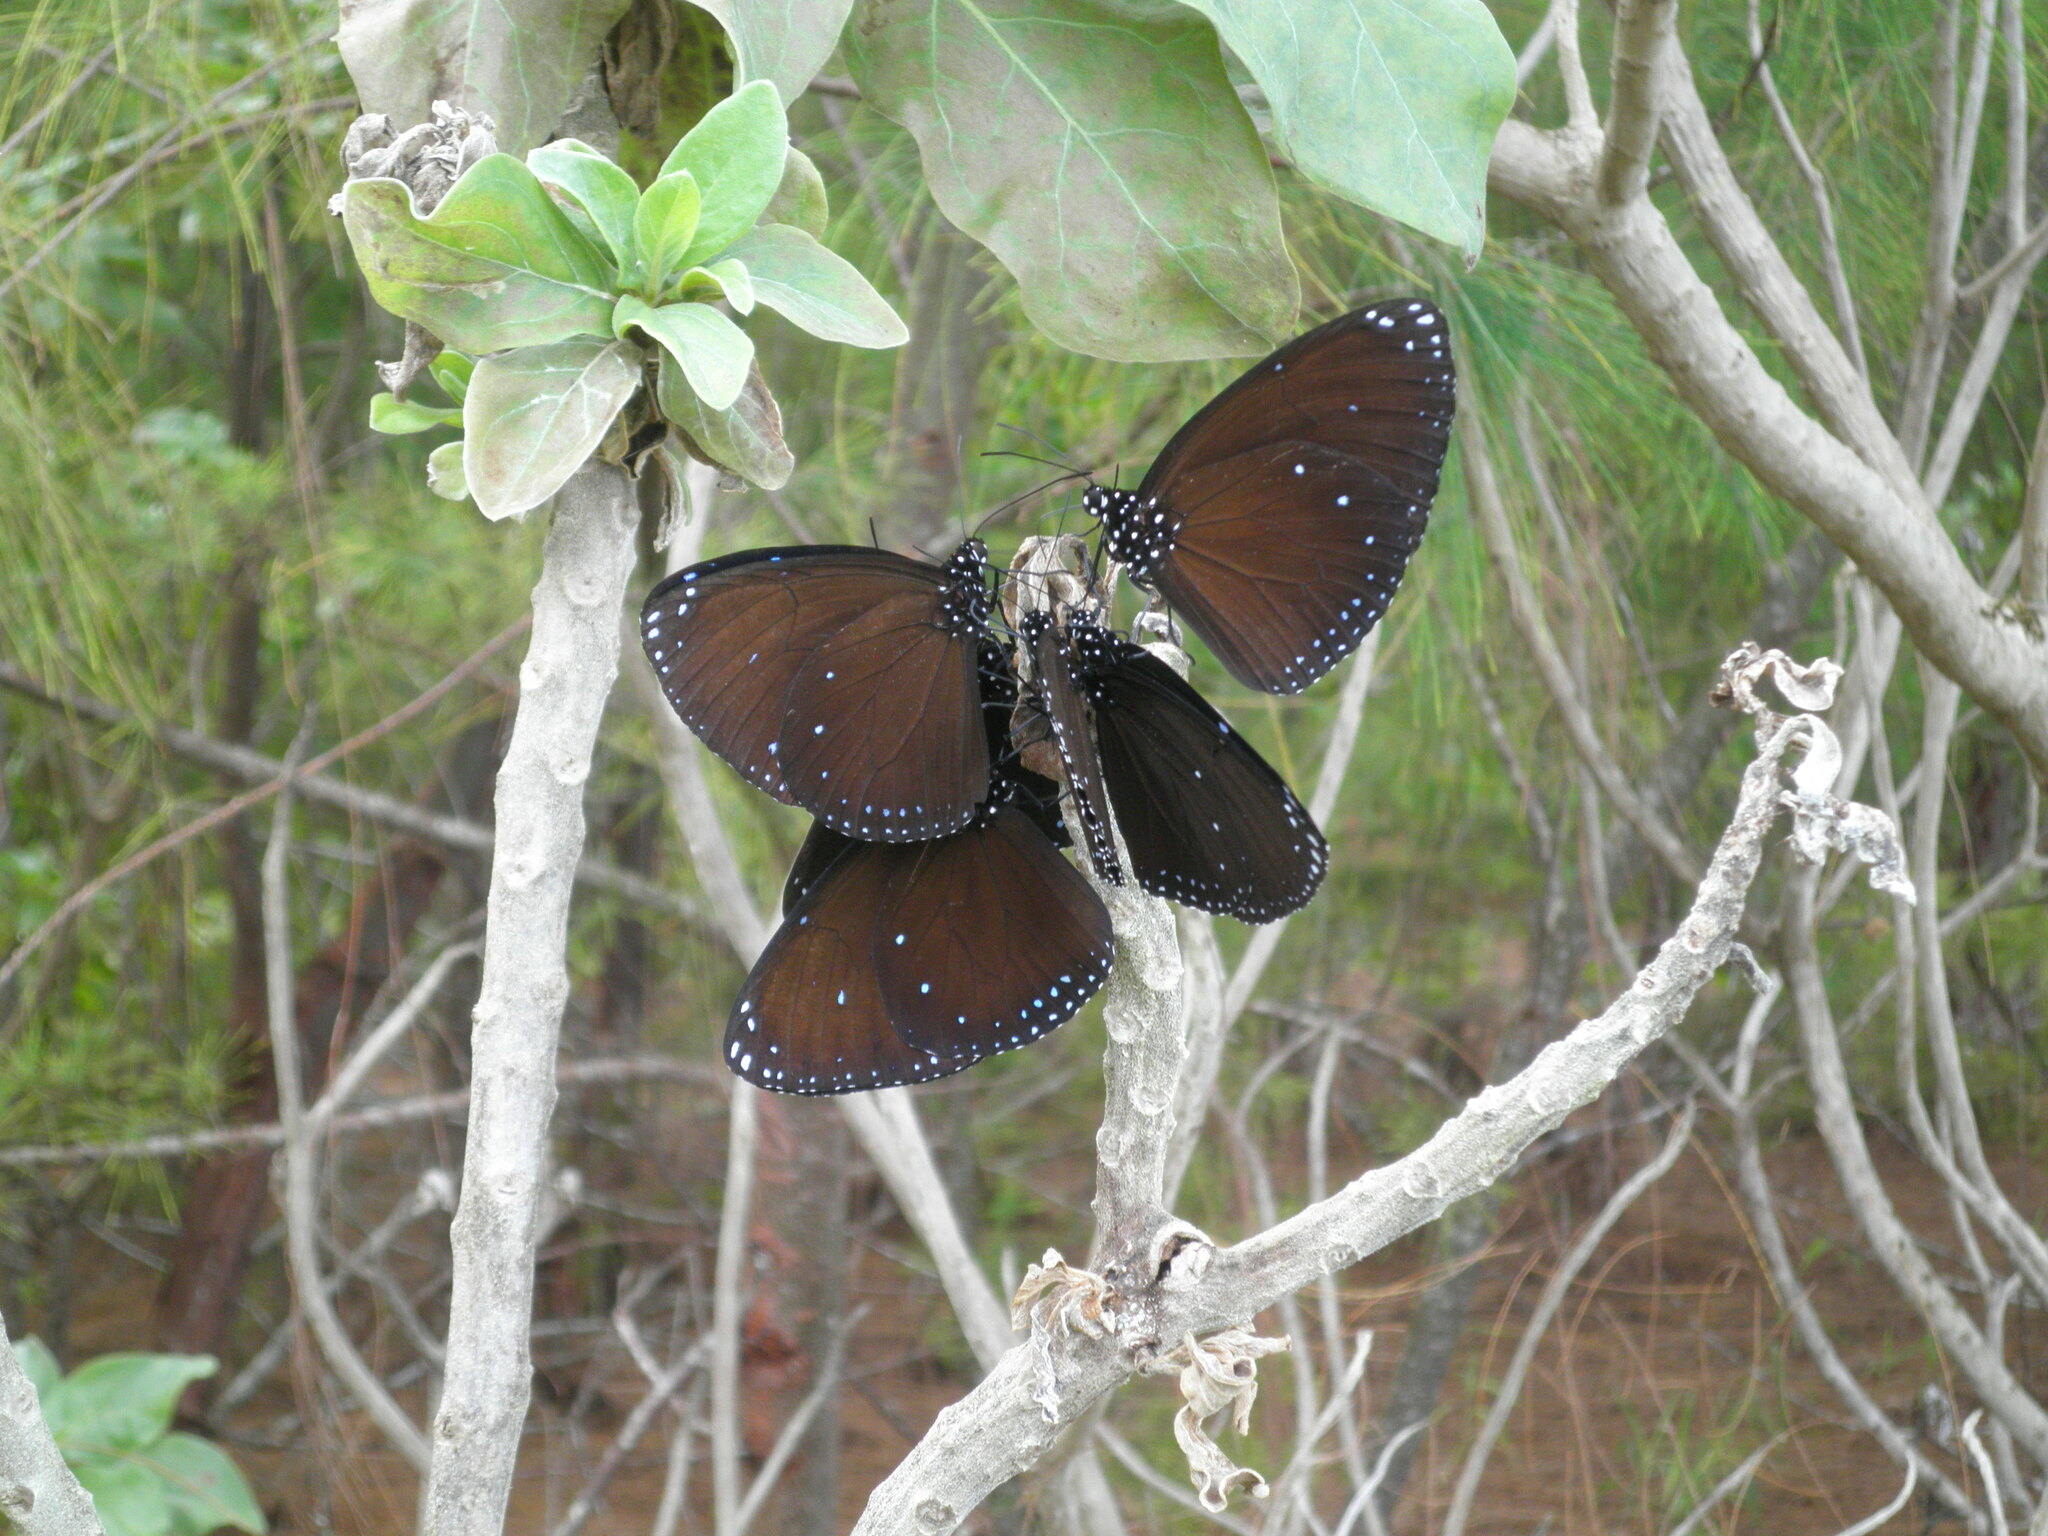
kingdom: Animalia
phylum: Arthropoda
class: Insecta
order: Lepidoptera
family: Nymphalidae
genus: Euploea
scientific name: Euploea eunice
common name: Blue-banded king crow butterfly
